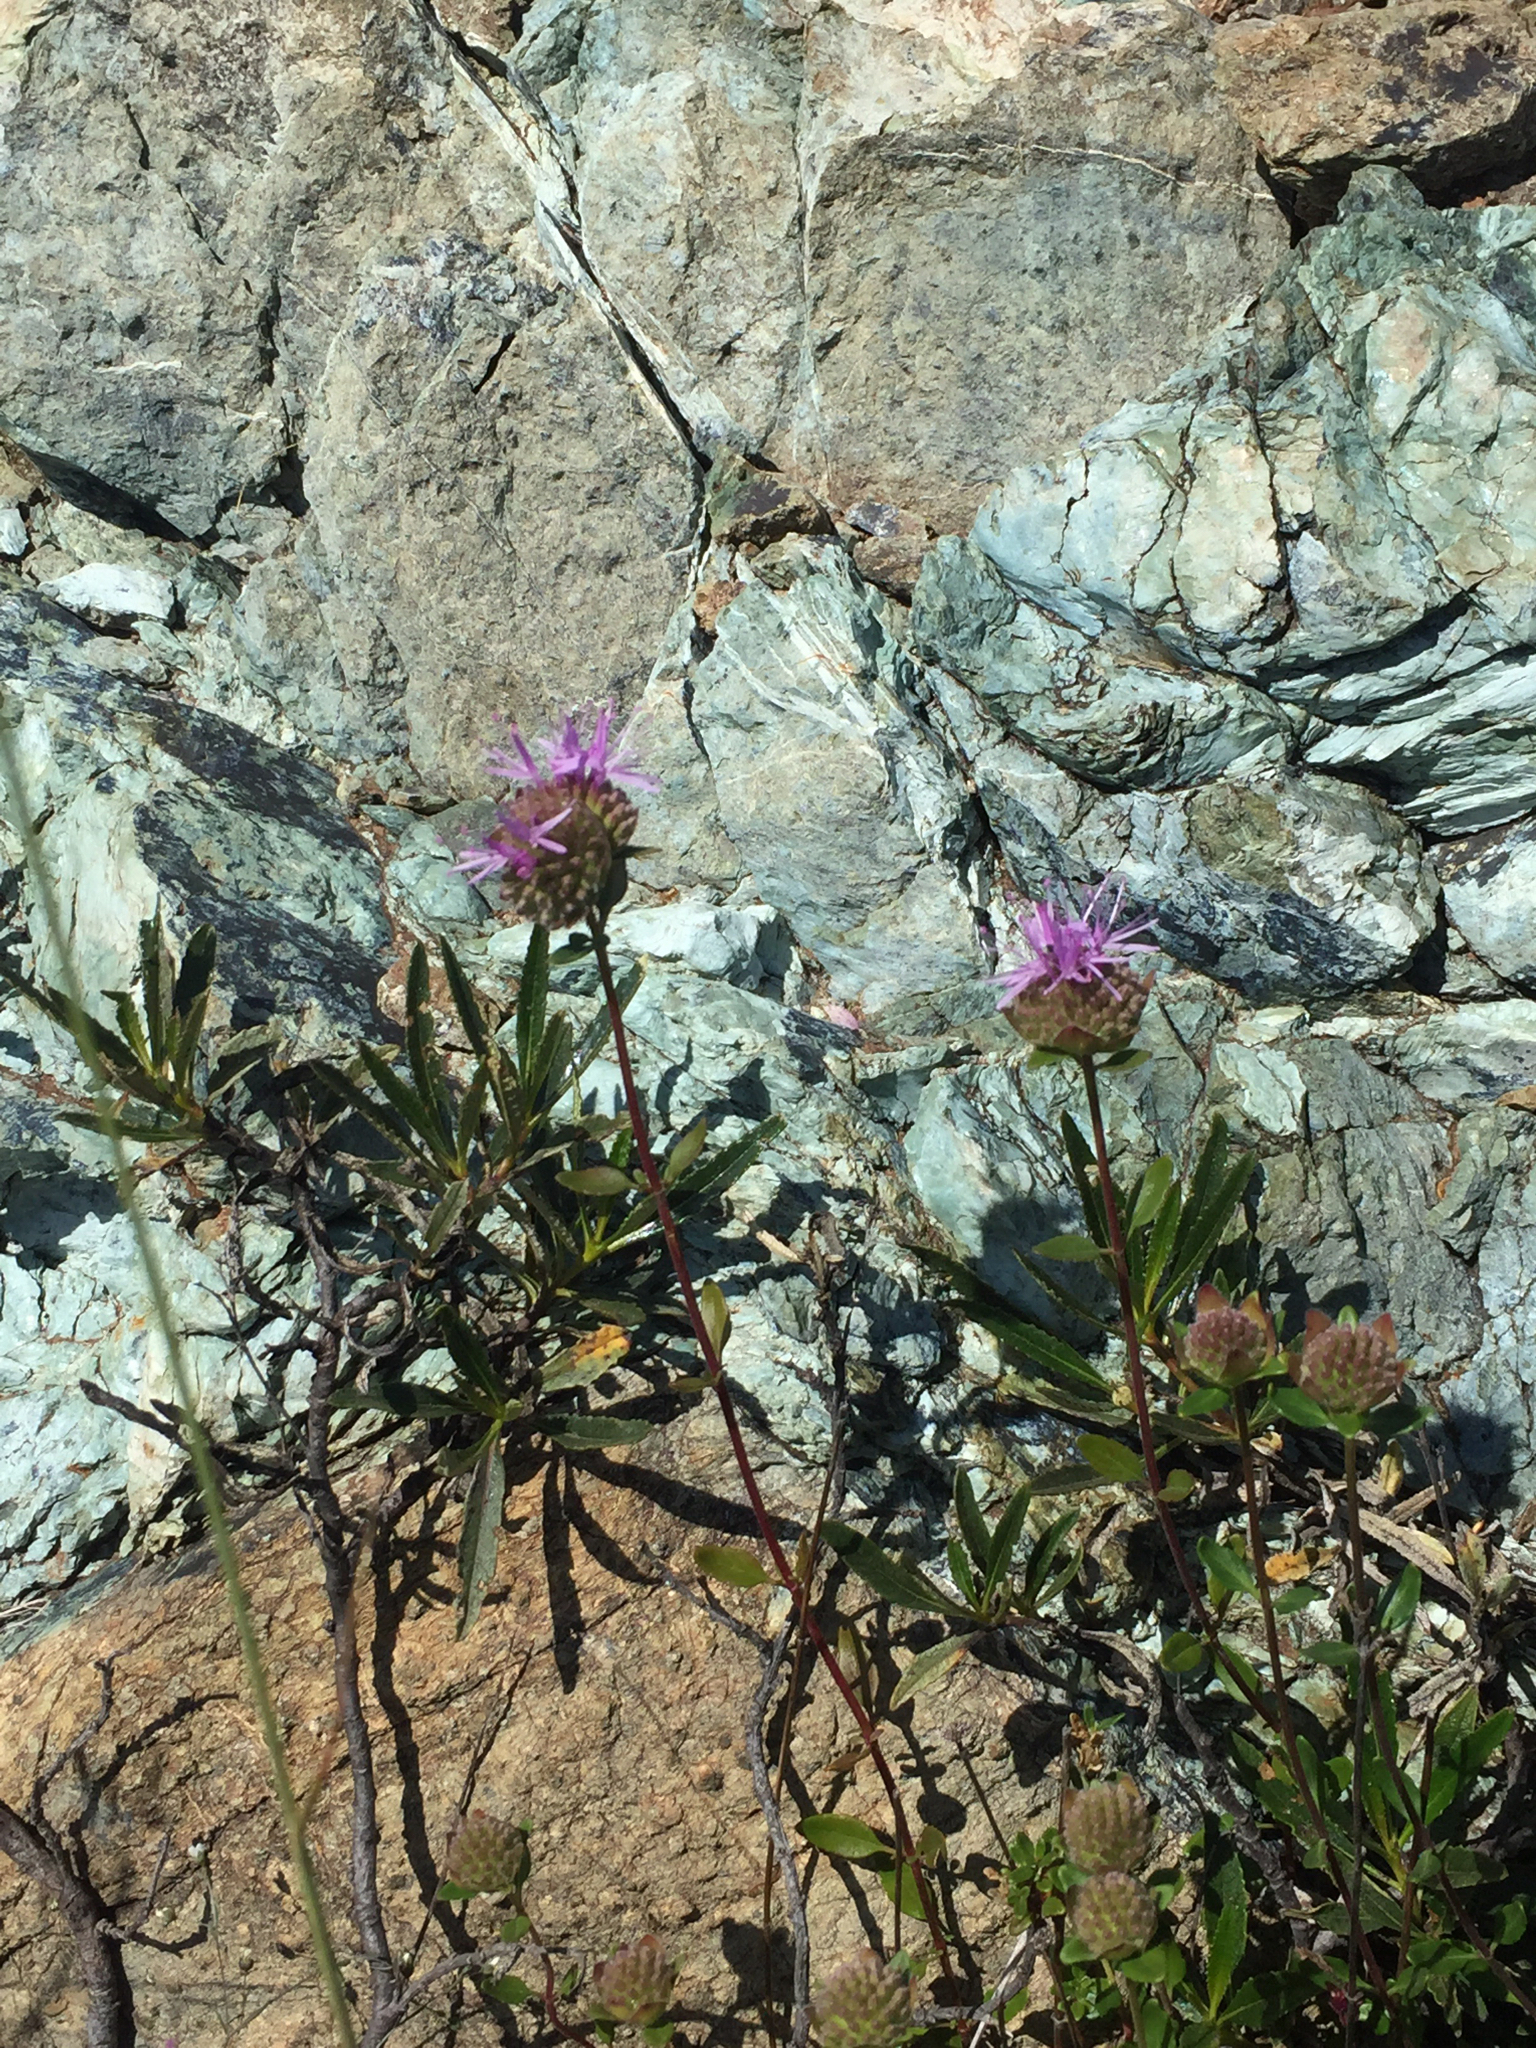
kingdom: Plantae
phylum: Tracheophyta
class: Magnoliopsida
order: Lamiales
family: Lamiaceae
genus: Monardella
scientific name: Monardella purpurea
